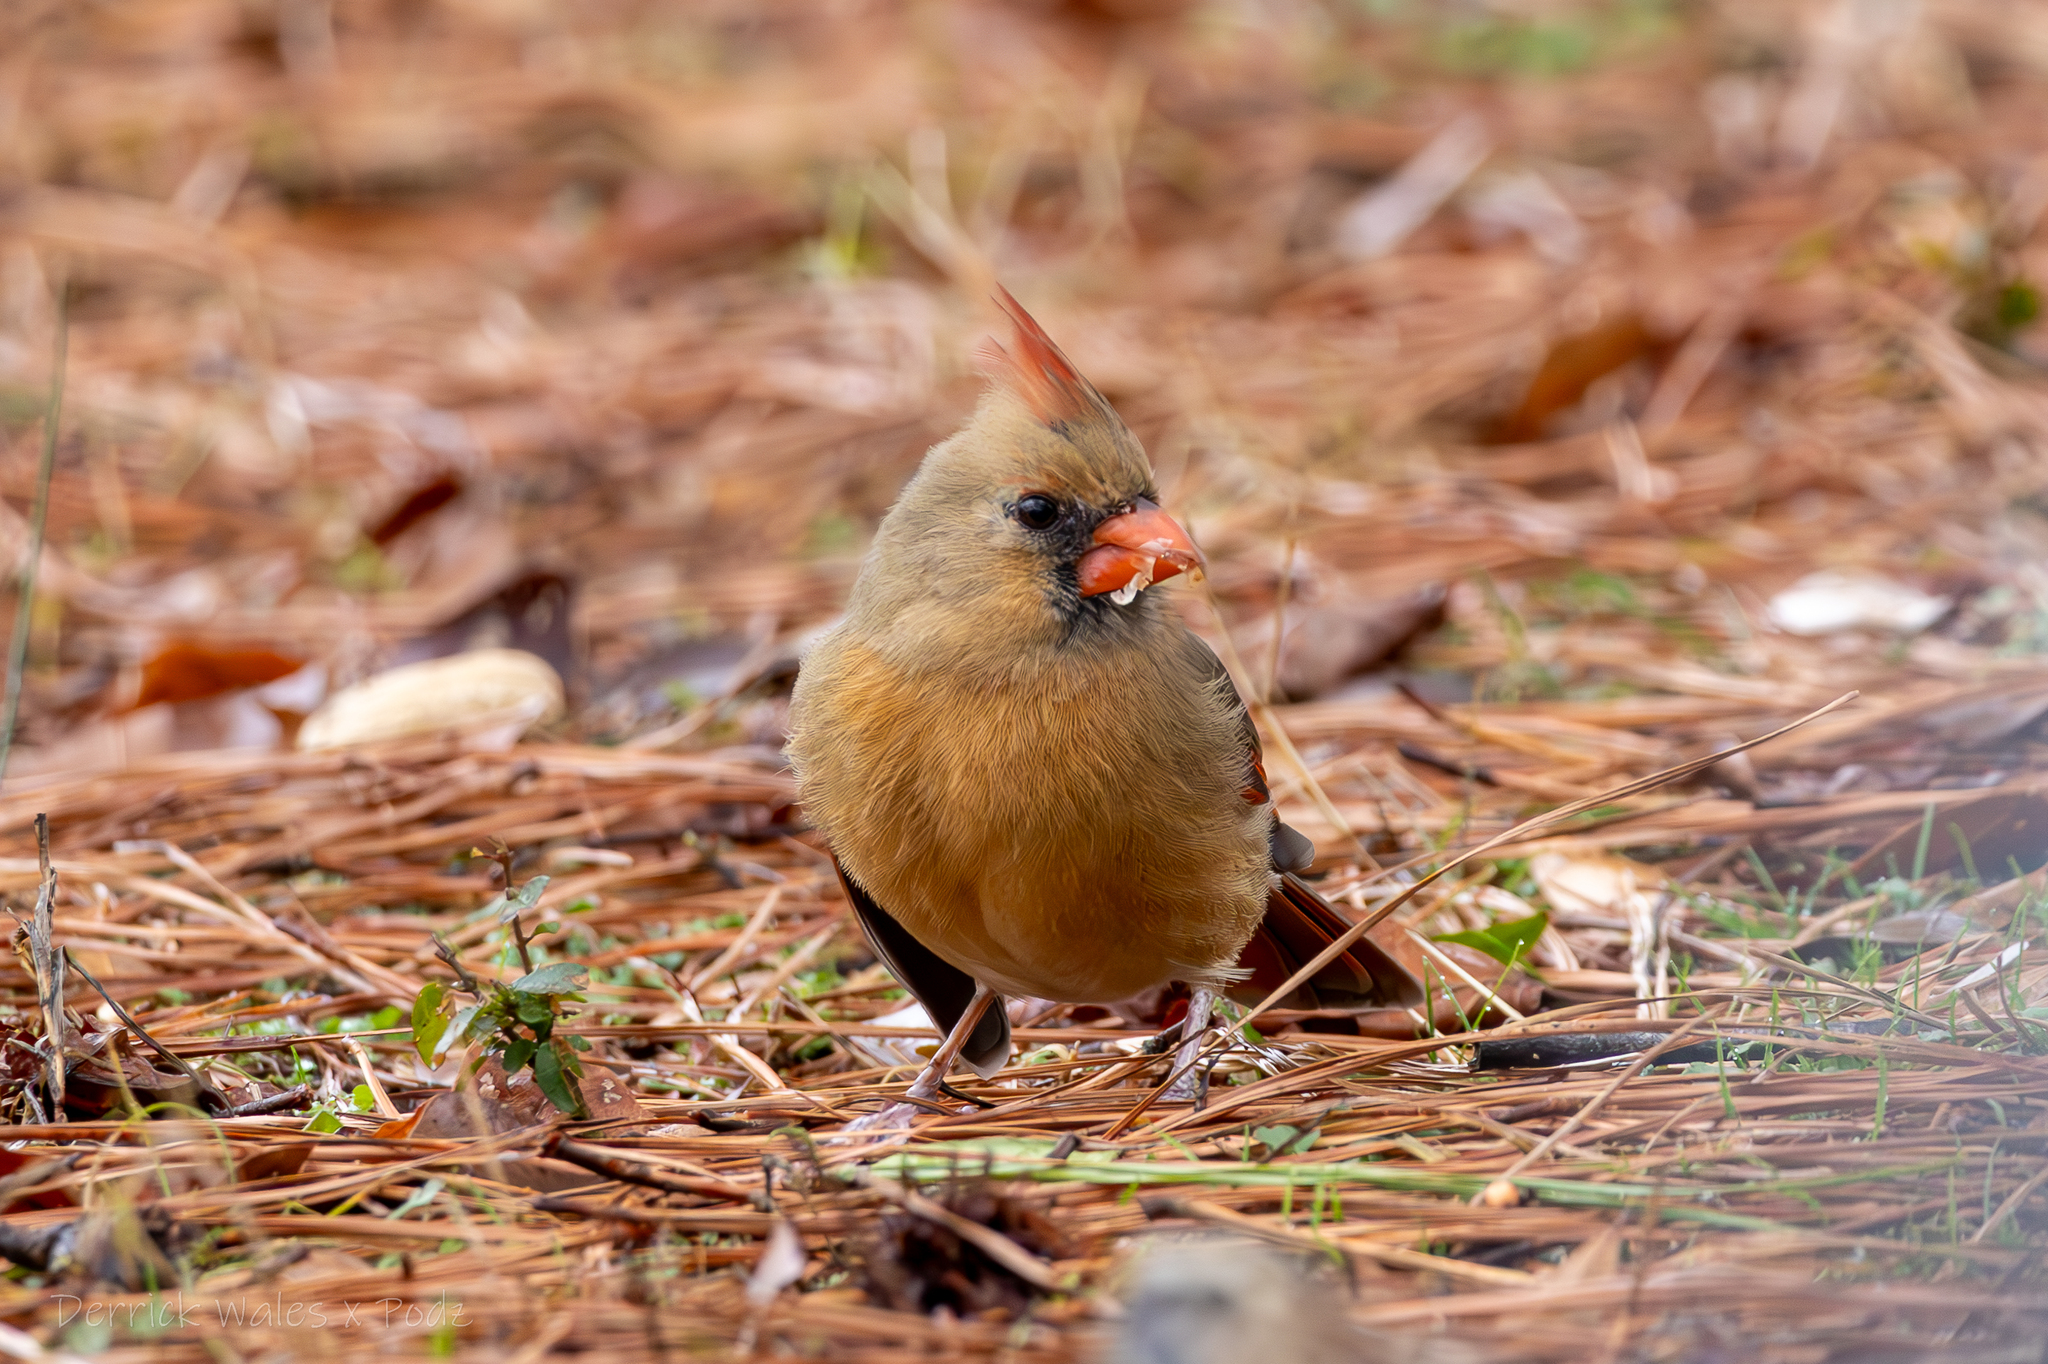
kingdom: Animalia
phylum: Chordata
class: Aves
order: Passeriformes
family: Cardinalidae
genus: Cardinalis
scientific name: Cardinalis cardinalis
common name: Northern cardinal
